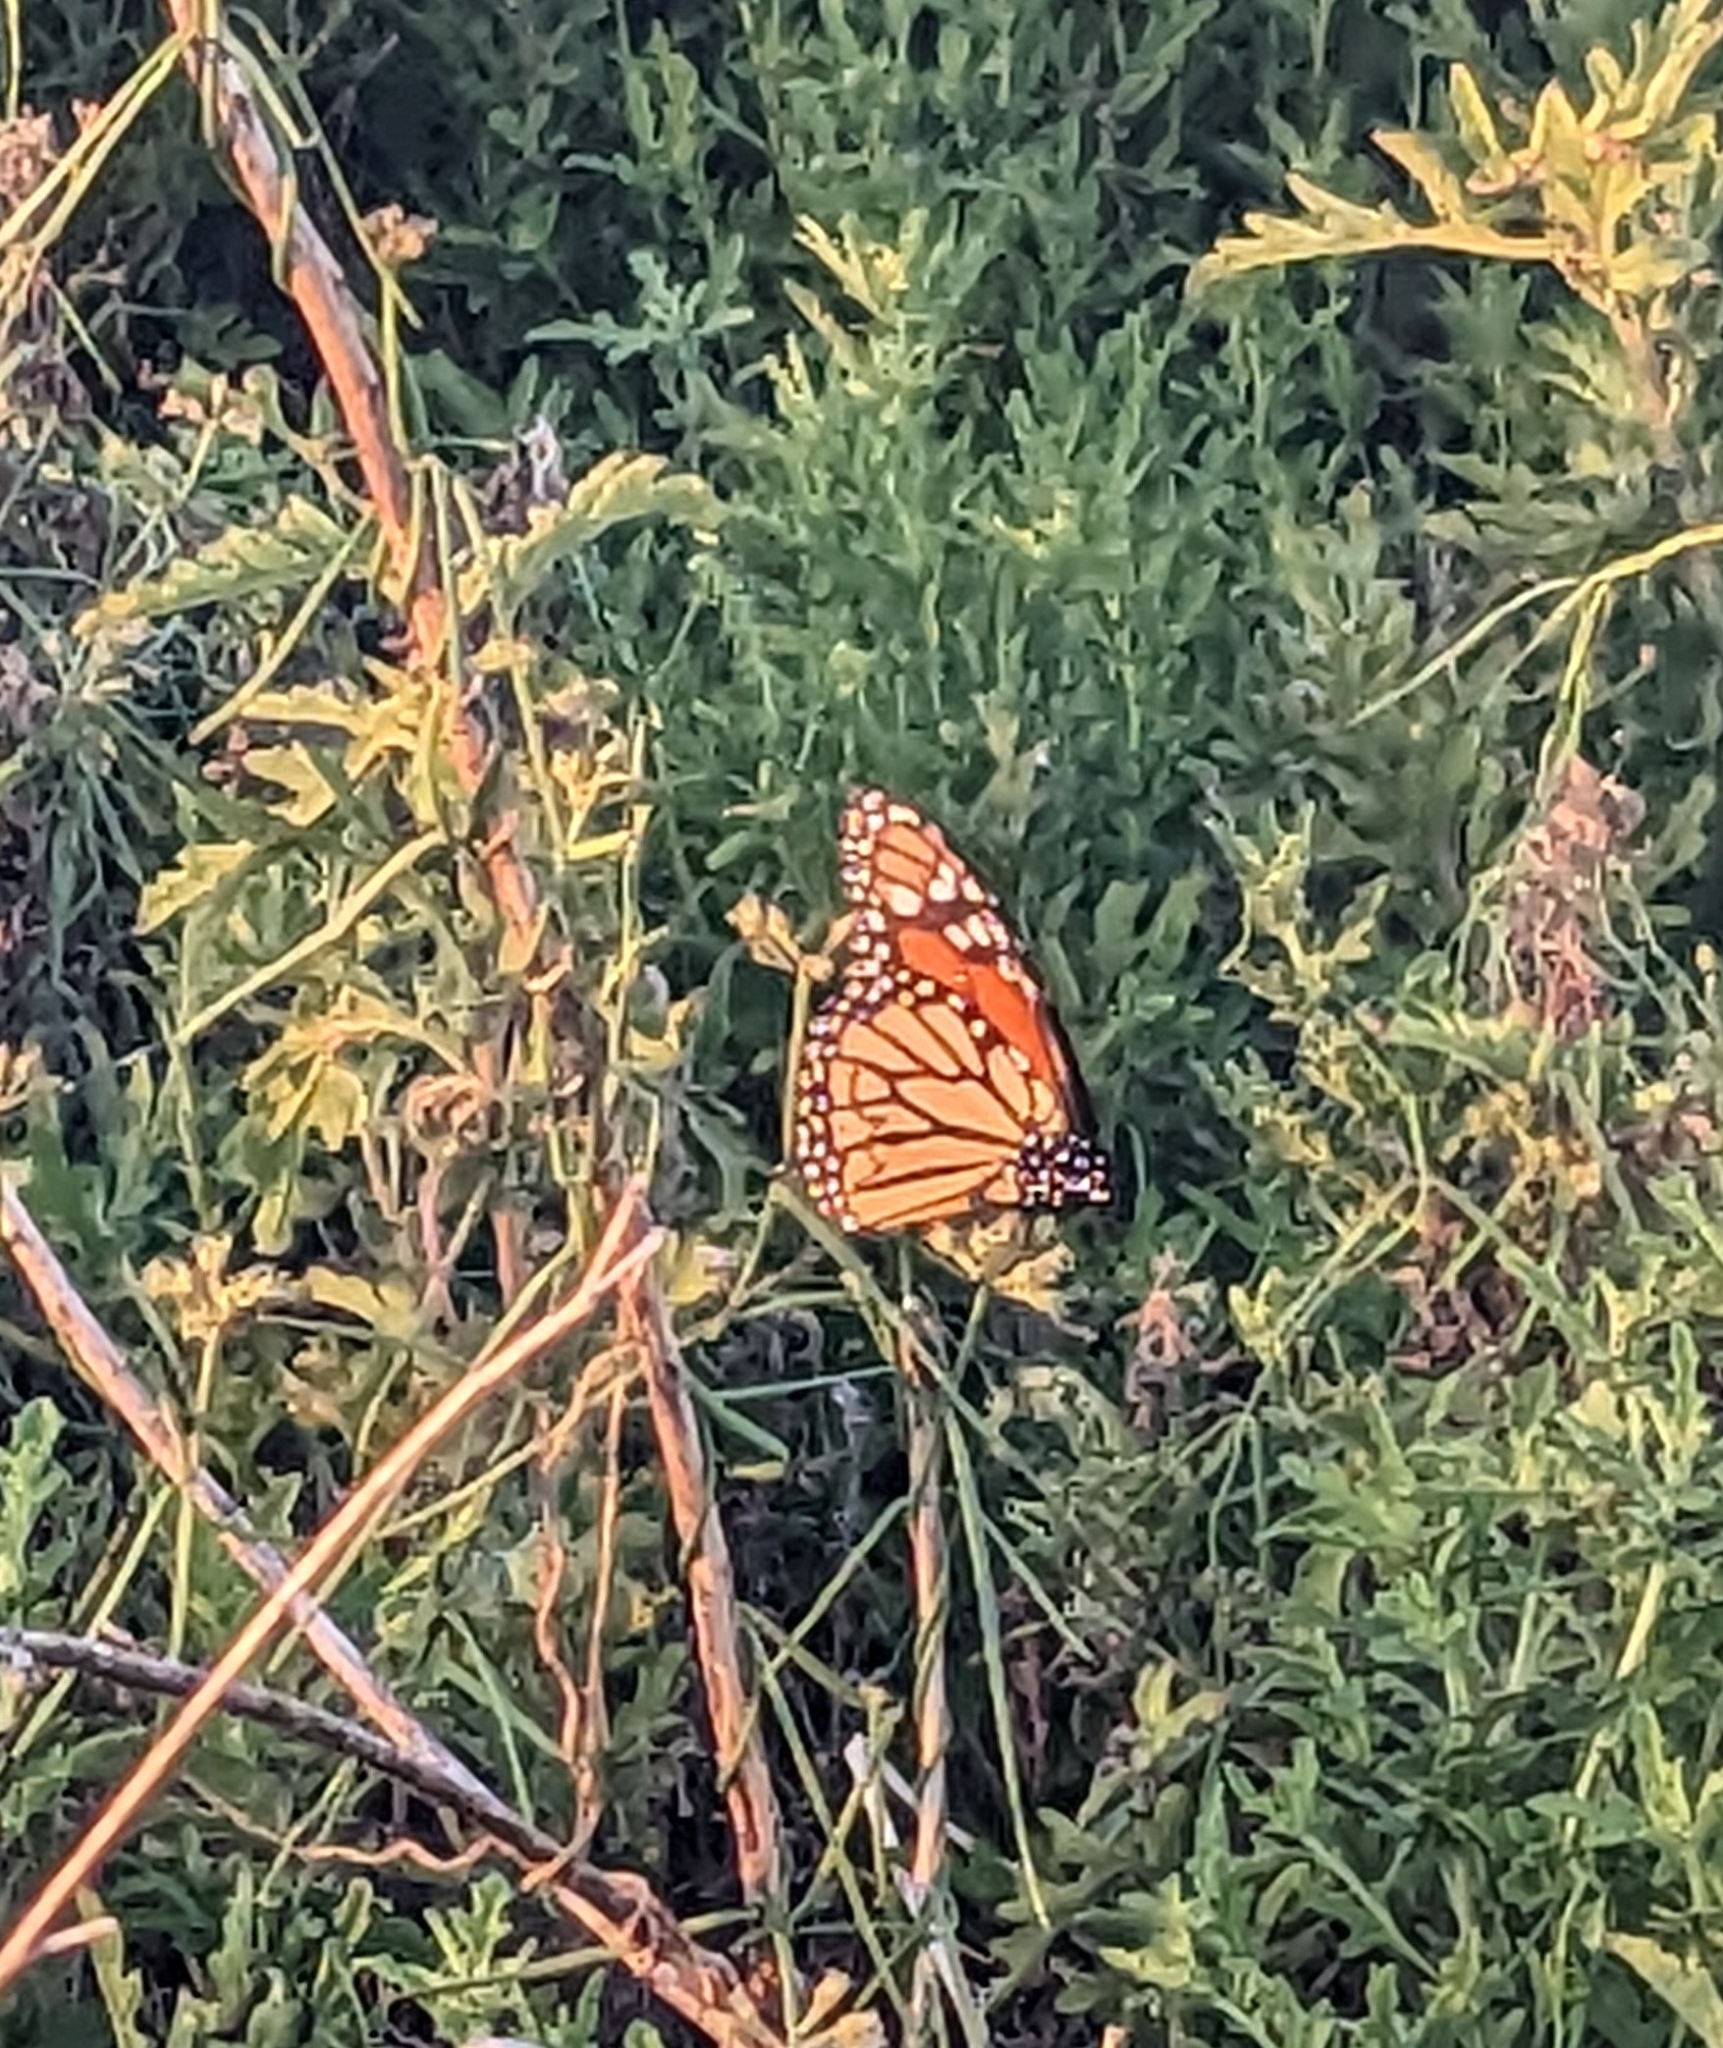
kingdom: Animalia
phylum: Arthropoda
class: Insecta
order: Lepidoptera
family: Nymphalidae
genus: Danaus
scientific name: Danaus plexippus
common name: Monarch
